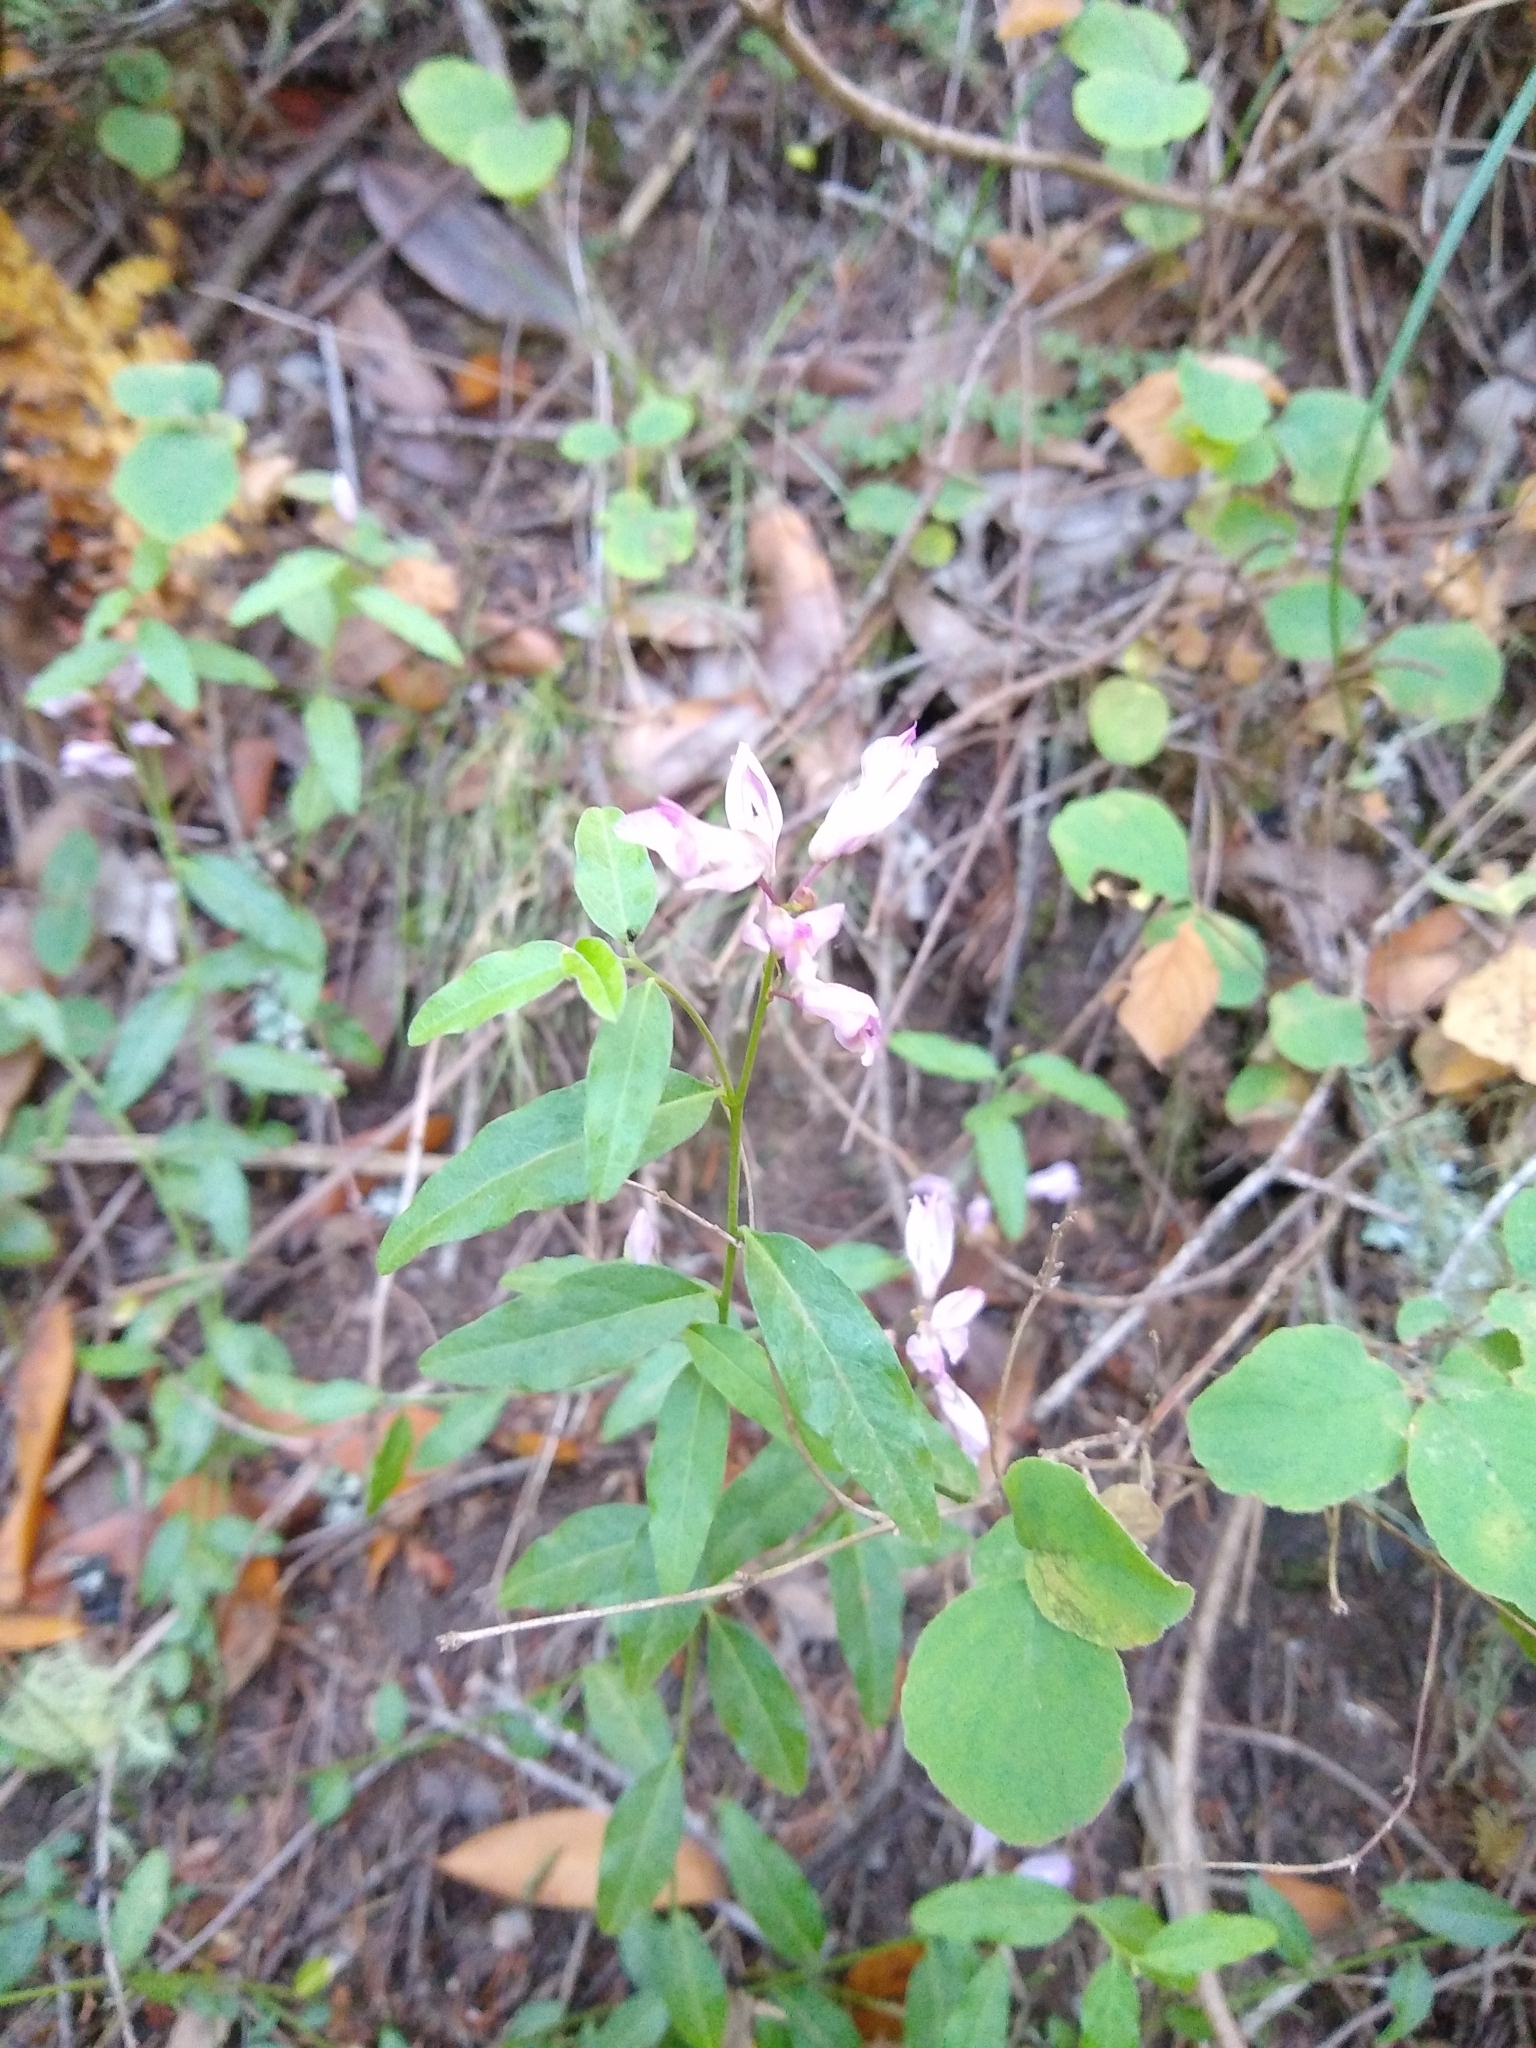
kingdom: Plantae
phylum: Tracheophyta
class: Magnoliopsida
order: Fabales
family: Polygalaceae
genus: Rhinotropis
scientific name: Rhinotropis californica
